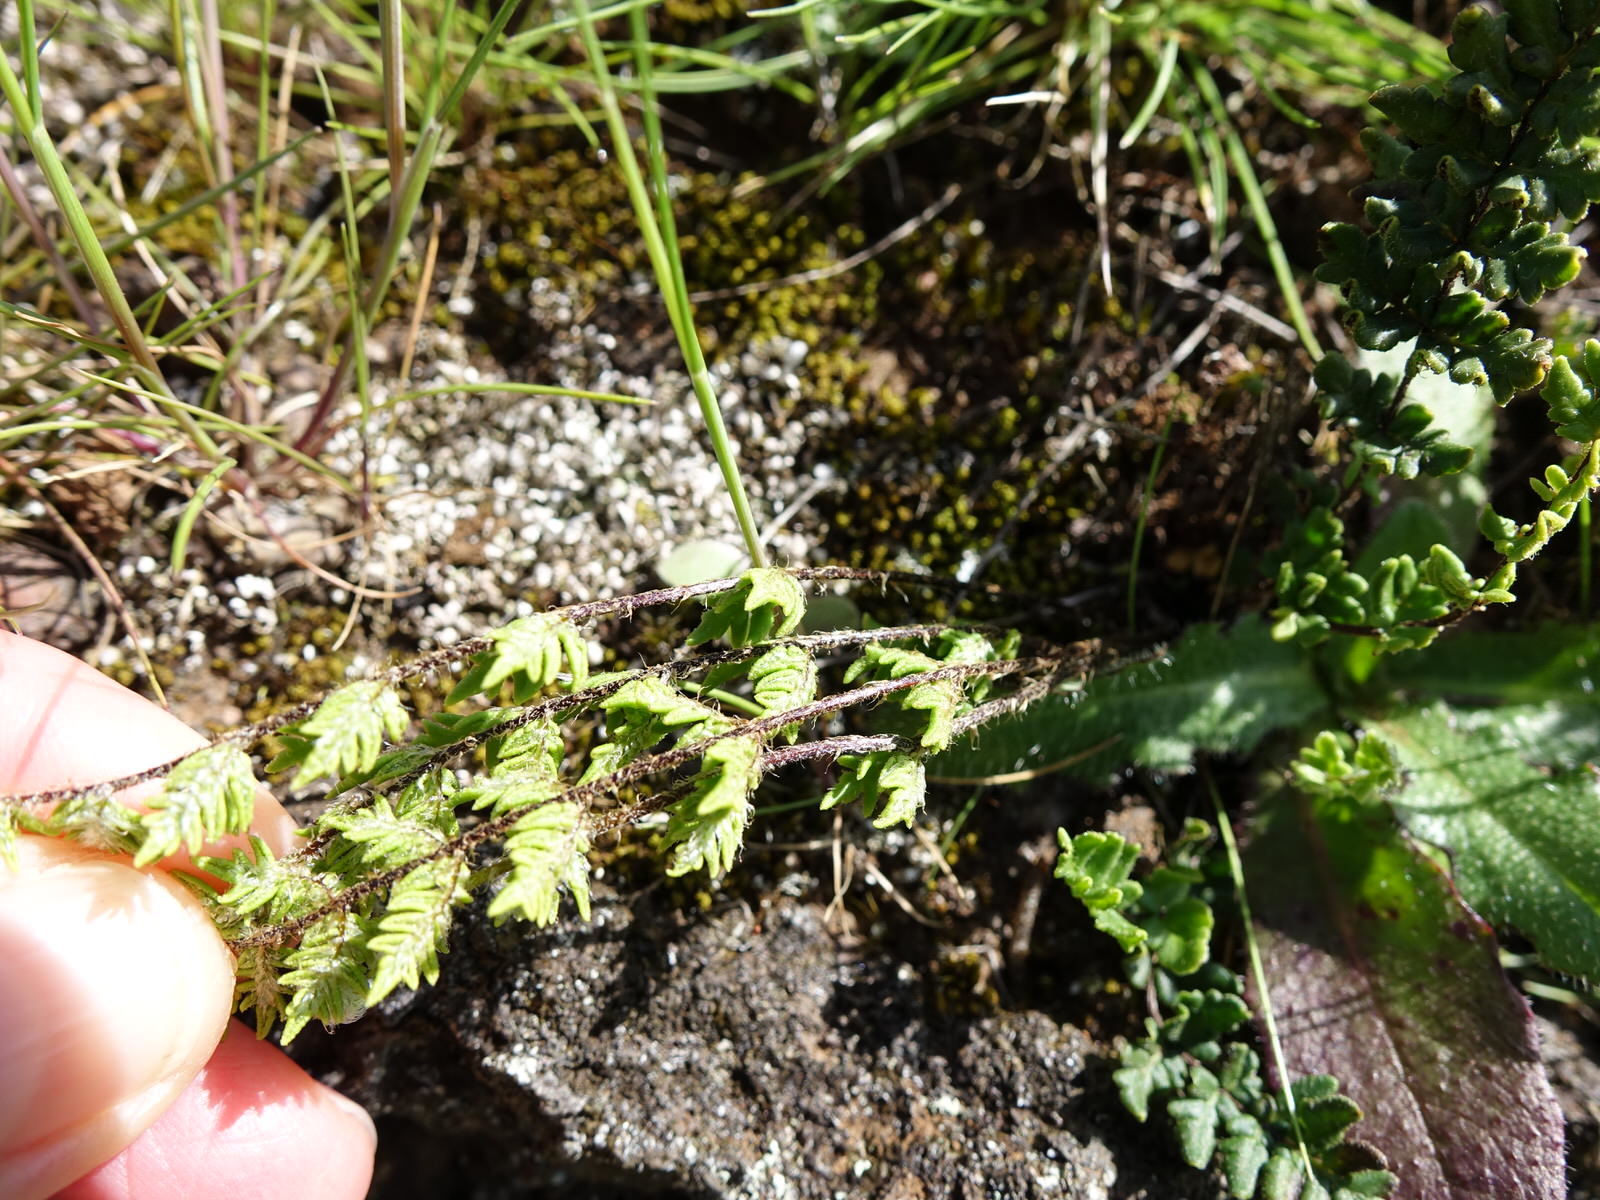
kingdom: Plantae
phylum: Tracheophyta
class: Polypodiopsida
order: Polypodiales
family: Pteridaceae
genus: Cheilanthes
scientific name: Cheilanthes distans
